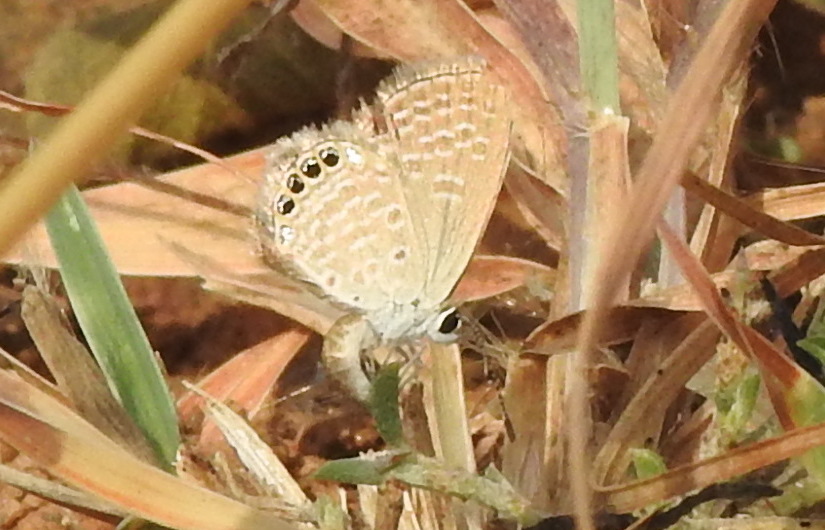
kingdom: Animalia
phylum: Arthropoda
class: Insecta
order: Lepidoptera
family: Lycaenidae
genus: Freyeria
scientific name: Freyeria putli
